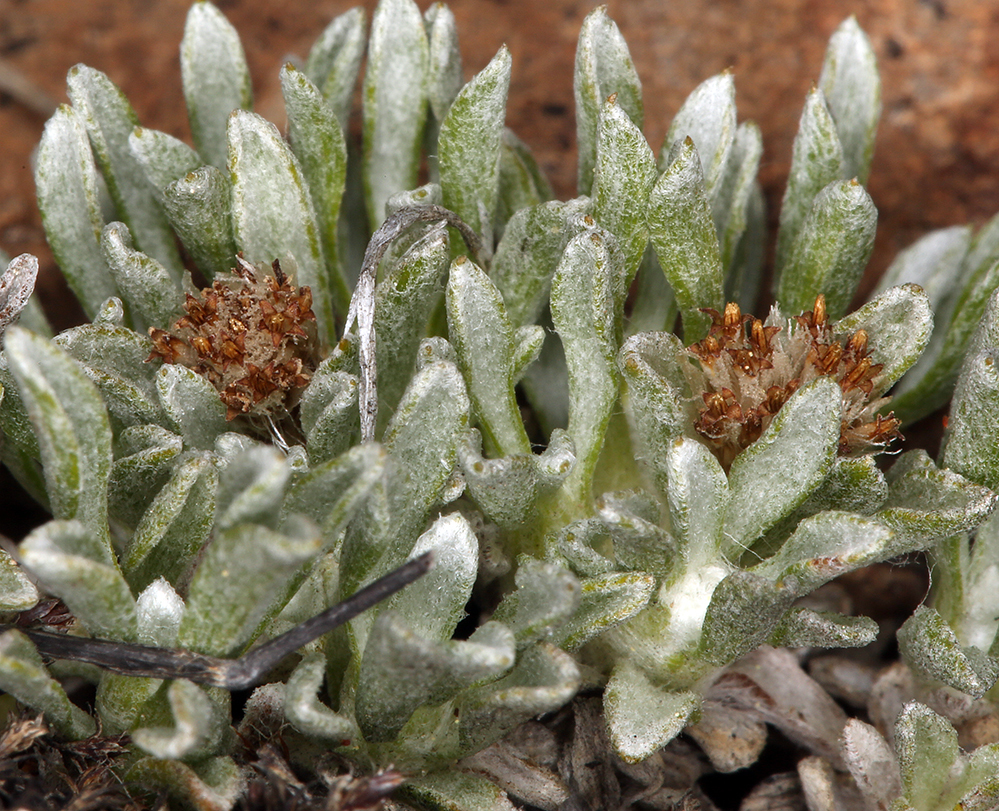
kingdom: Plantae
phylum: Tracheophyta
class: Magnoliopsida
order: Asterales
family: Asteraceae
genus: Antennaria
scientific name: Antennaria dimorpha
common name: Cushion pussytoes
